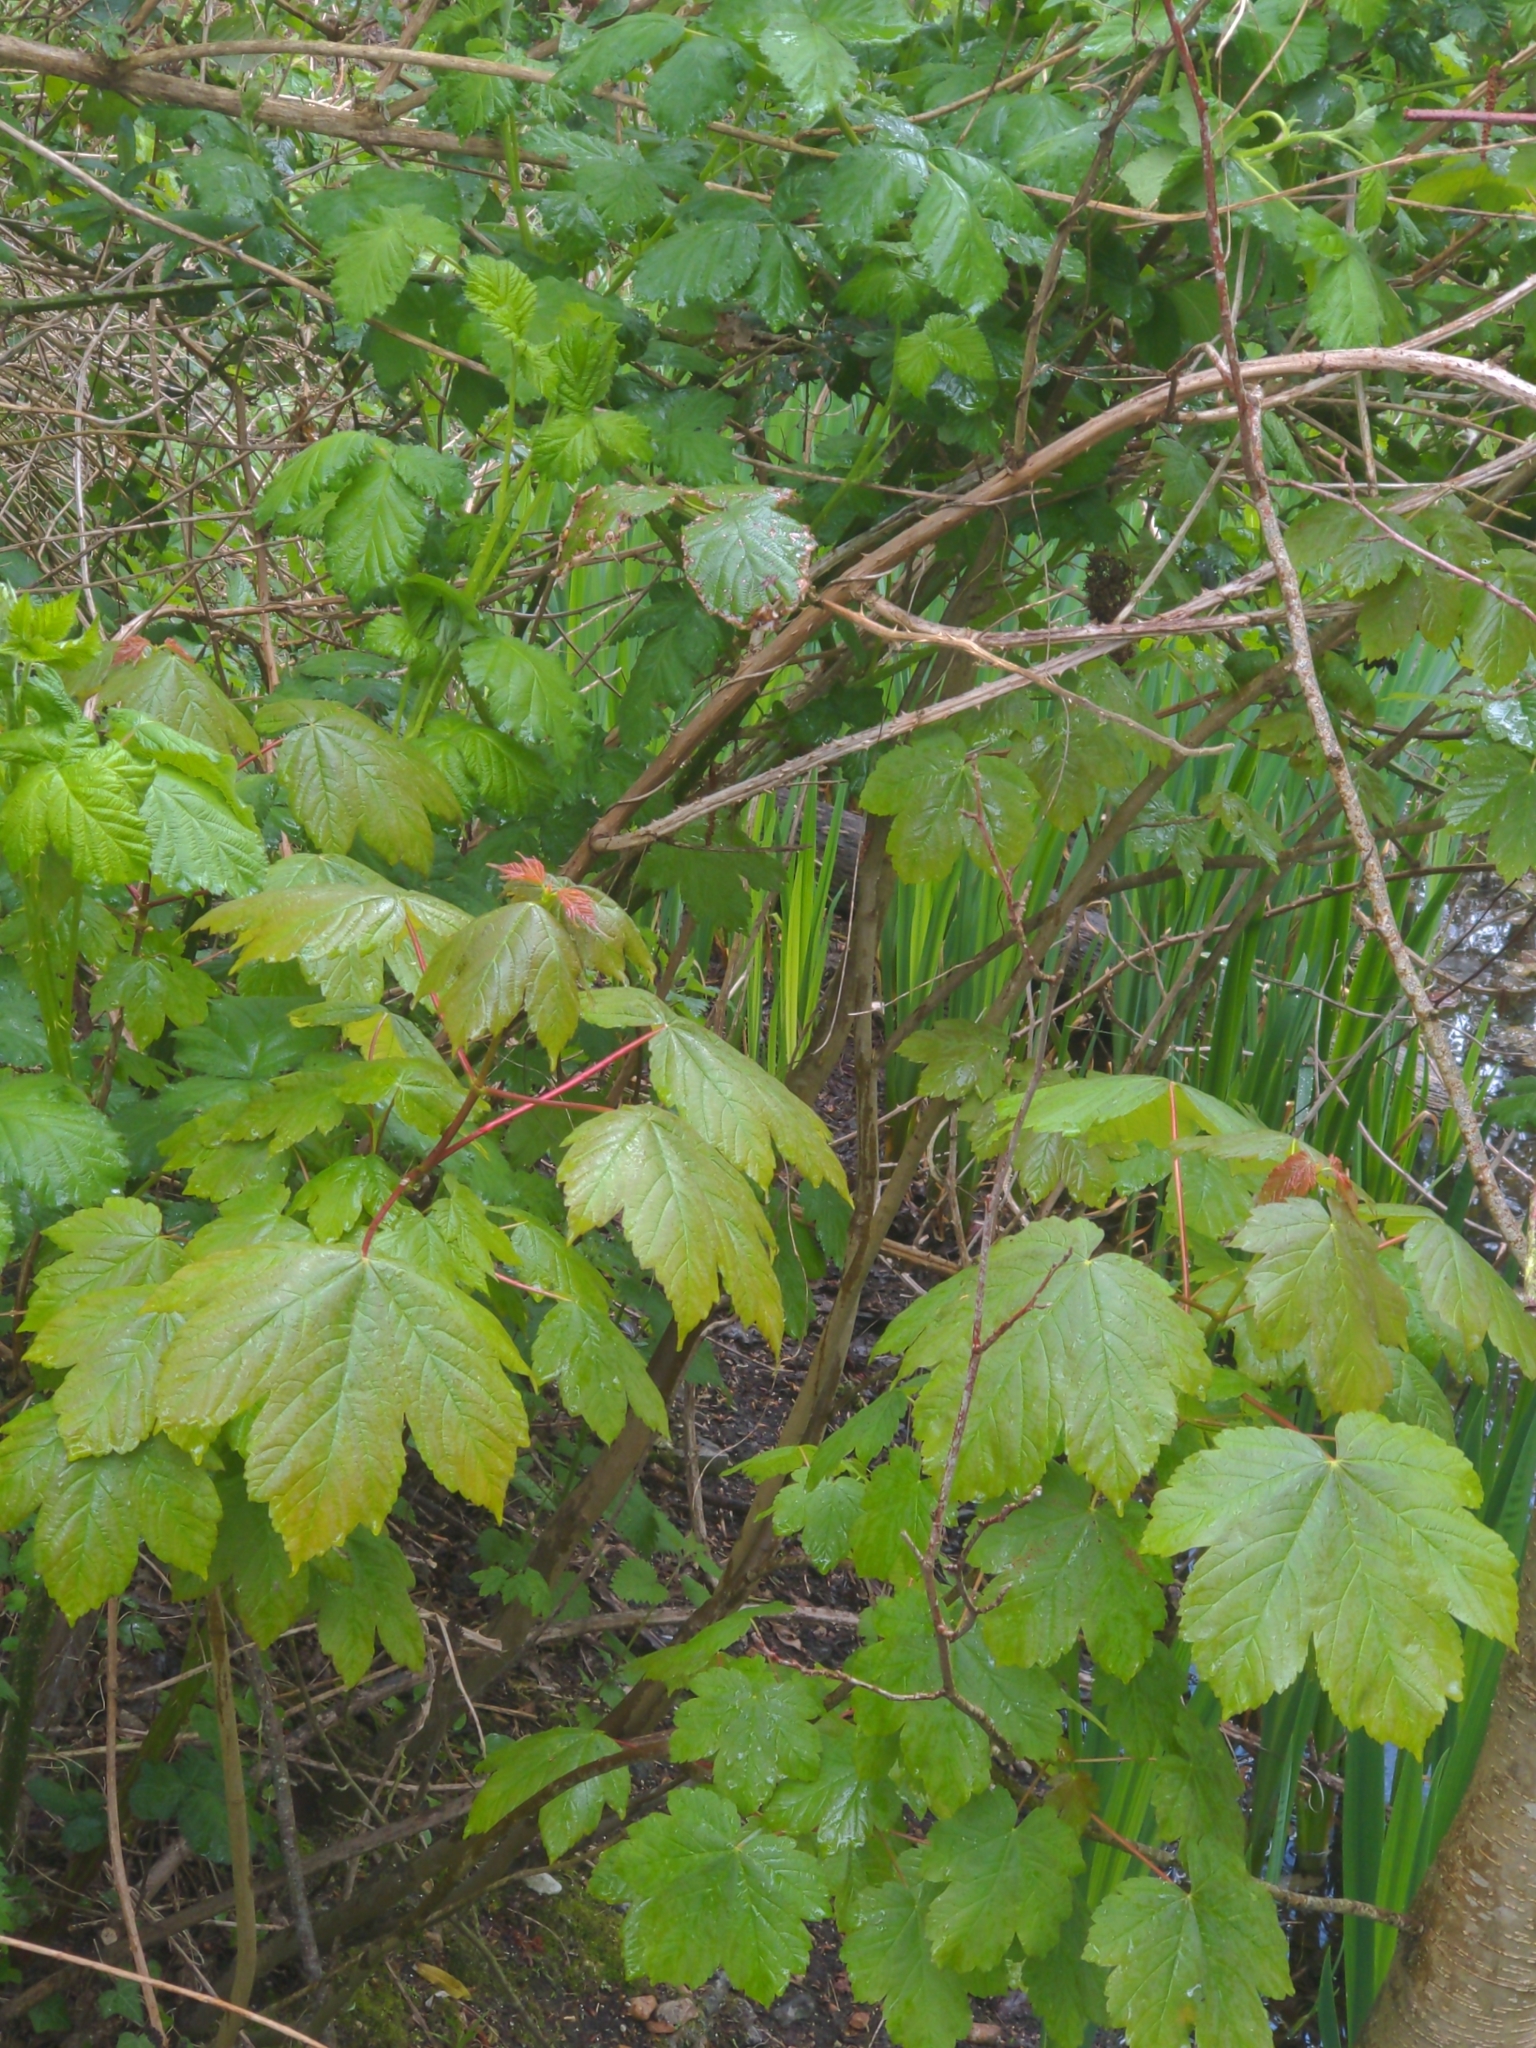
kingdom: Plantae
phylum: Tracheophyta
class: Magnoliopsida
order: Sapindales
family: Sapindaceae
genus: Acer
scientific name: Acer pseudoplatanus
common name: Sycamore
